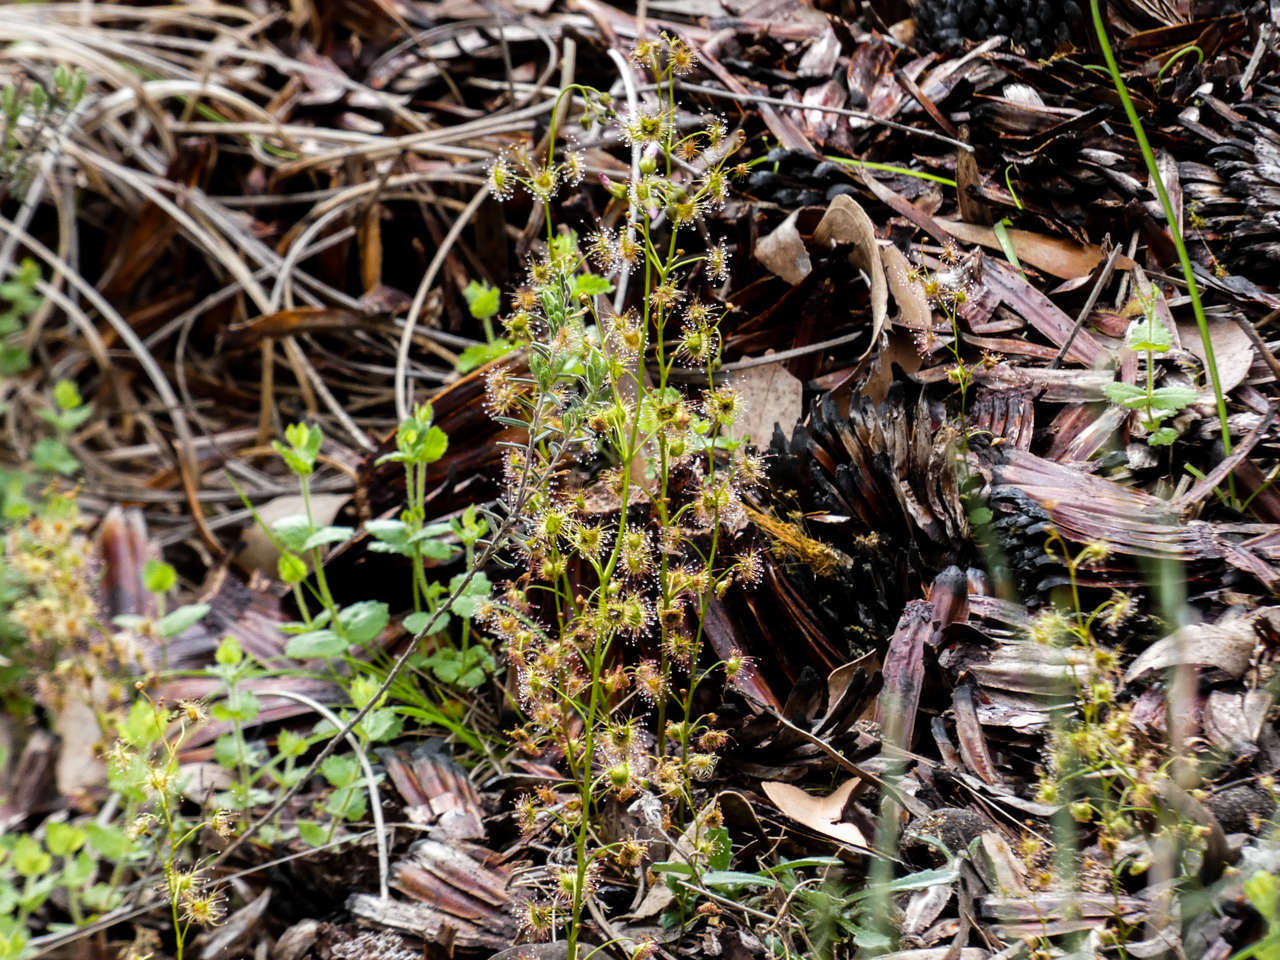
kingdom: Plantae
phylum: Tracheophyta
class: Magnoliopsida
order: Caryophyllales
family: Droseraceae
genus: Drosera
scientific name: Drosera peltata
